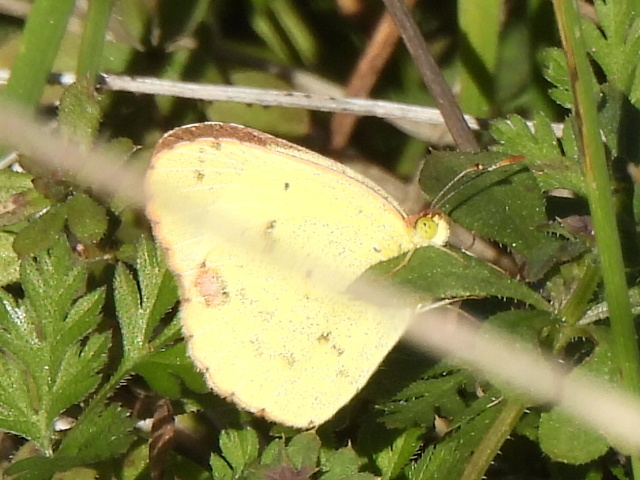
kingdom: Animalia
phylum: Arthropoda
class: Insecta
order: Lepidoptera
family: Pieridae
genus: Pyrisitia
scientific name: Pyrisitia lisa
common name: Little yellow
